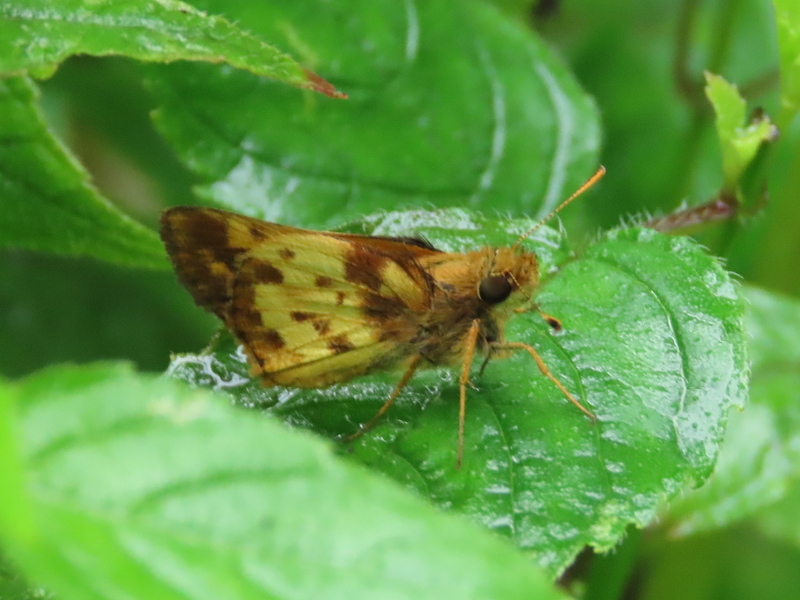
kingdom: Animalia
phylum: Arthropoda
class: Insecta
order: Lepidoptera
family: Hesperiidae
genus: Lon
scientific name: Lon zabulon
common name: Zabulon skipper
